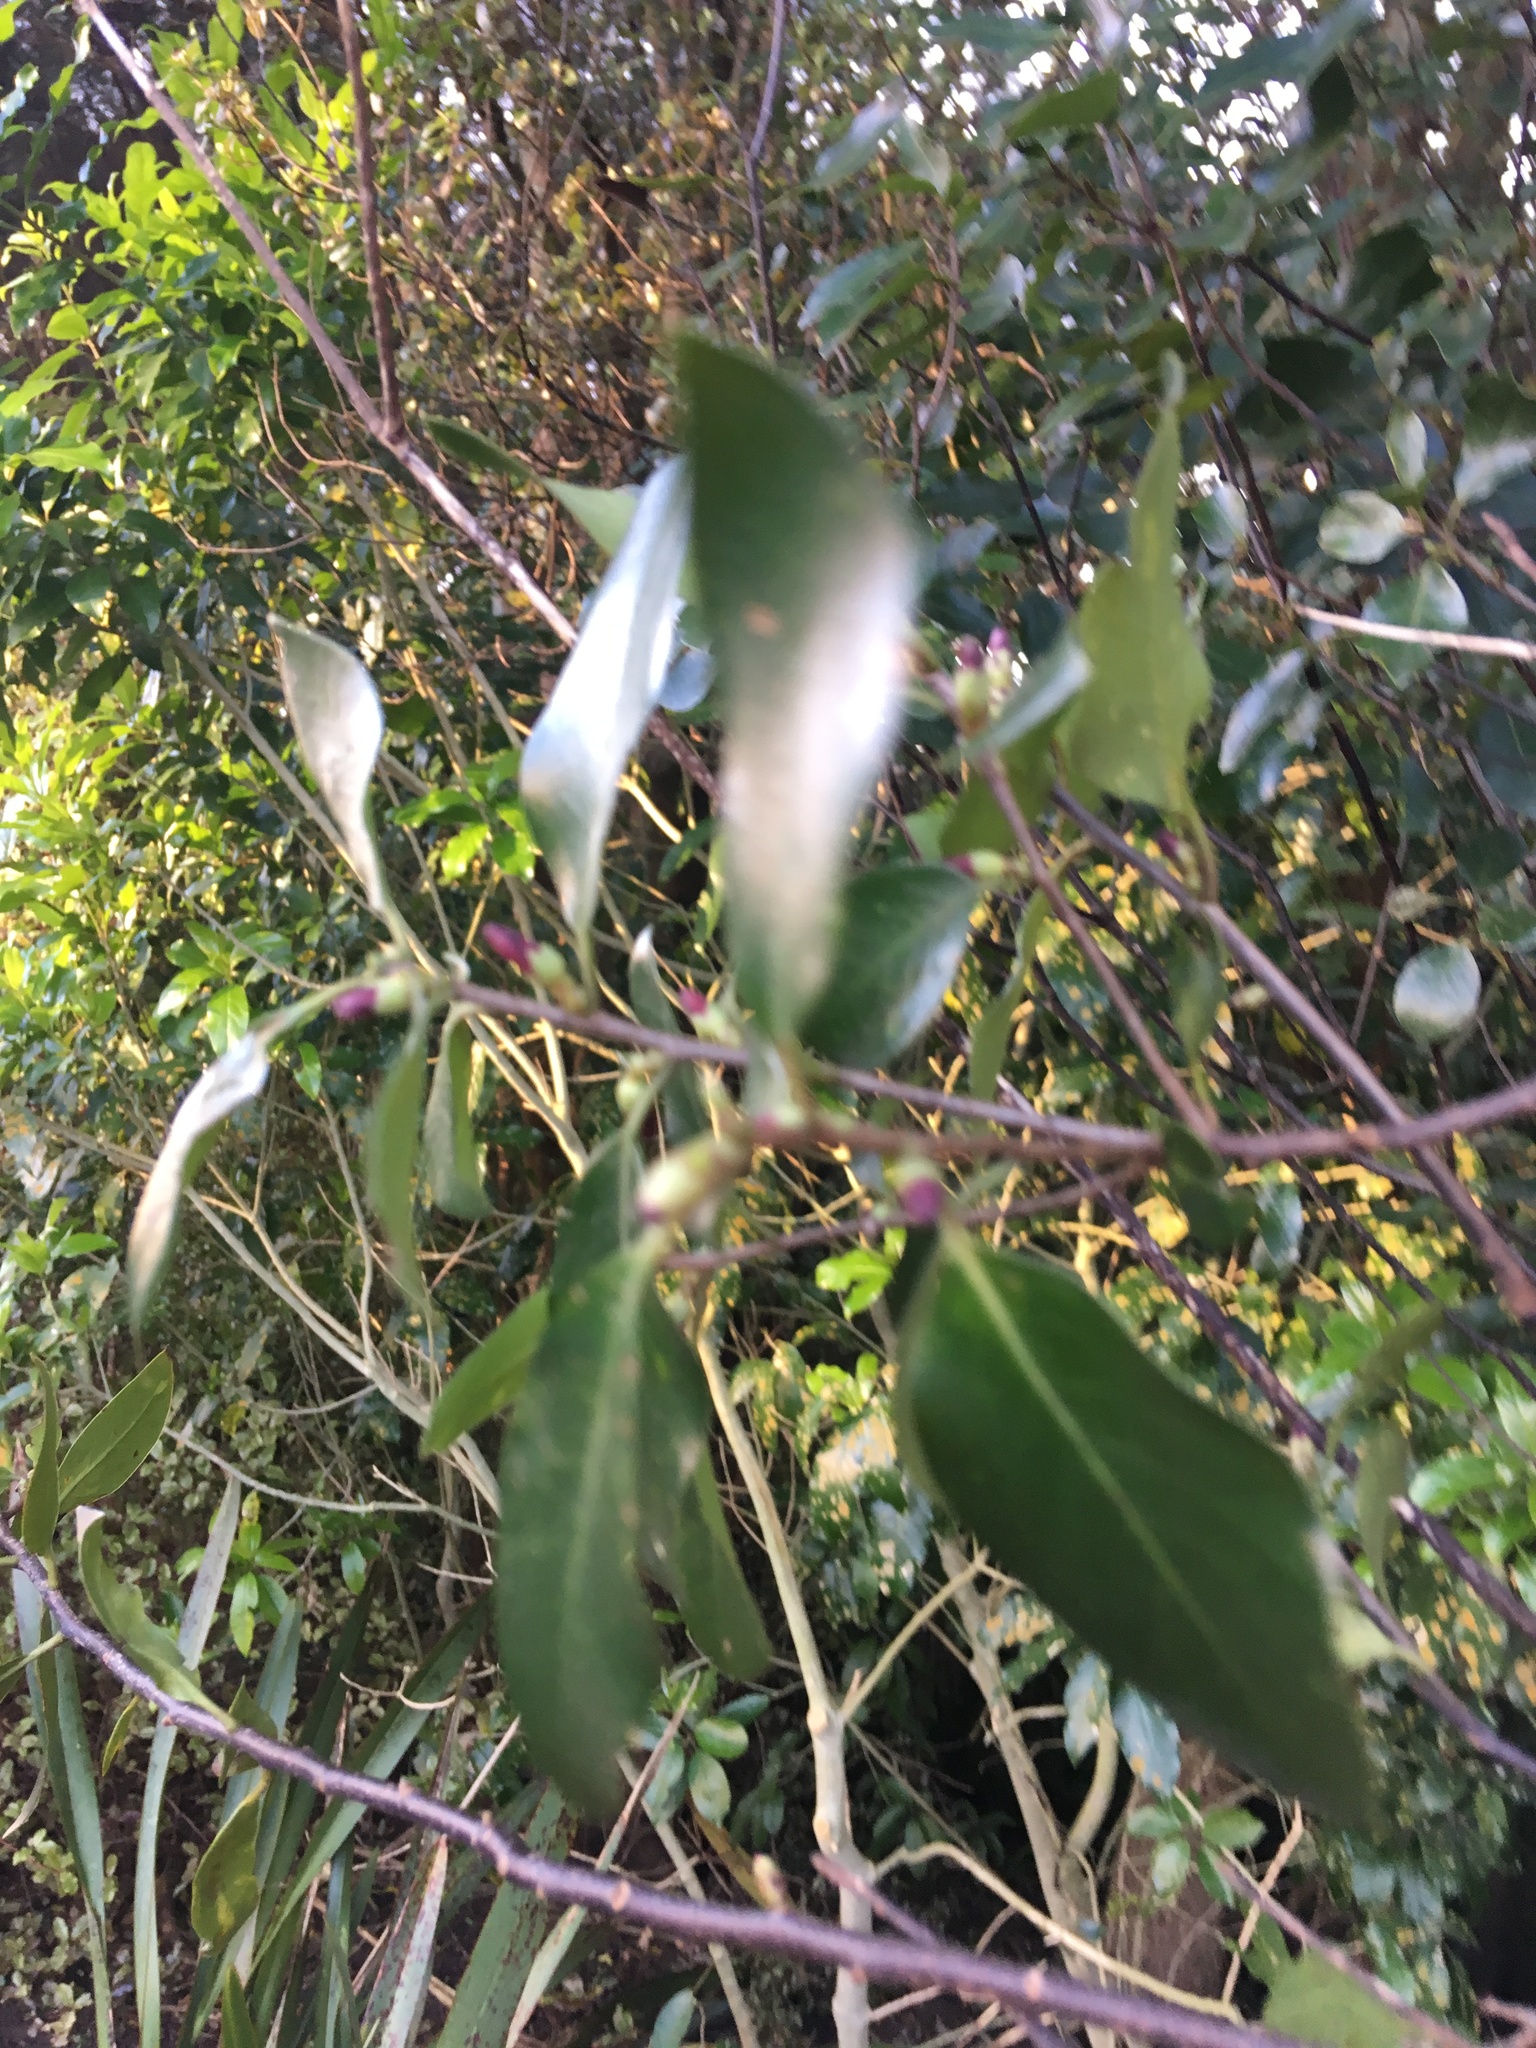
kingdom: Plantae
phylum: Tracheophyta
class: Magnoliopsida
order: Apiales
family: Pittosporaceae
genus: Pittosporum
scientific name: Pittosporum tenuifolium
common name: Kohuhu
